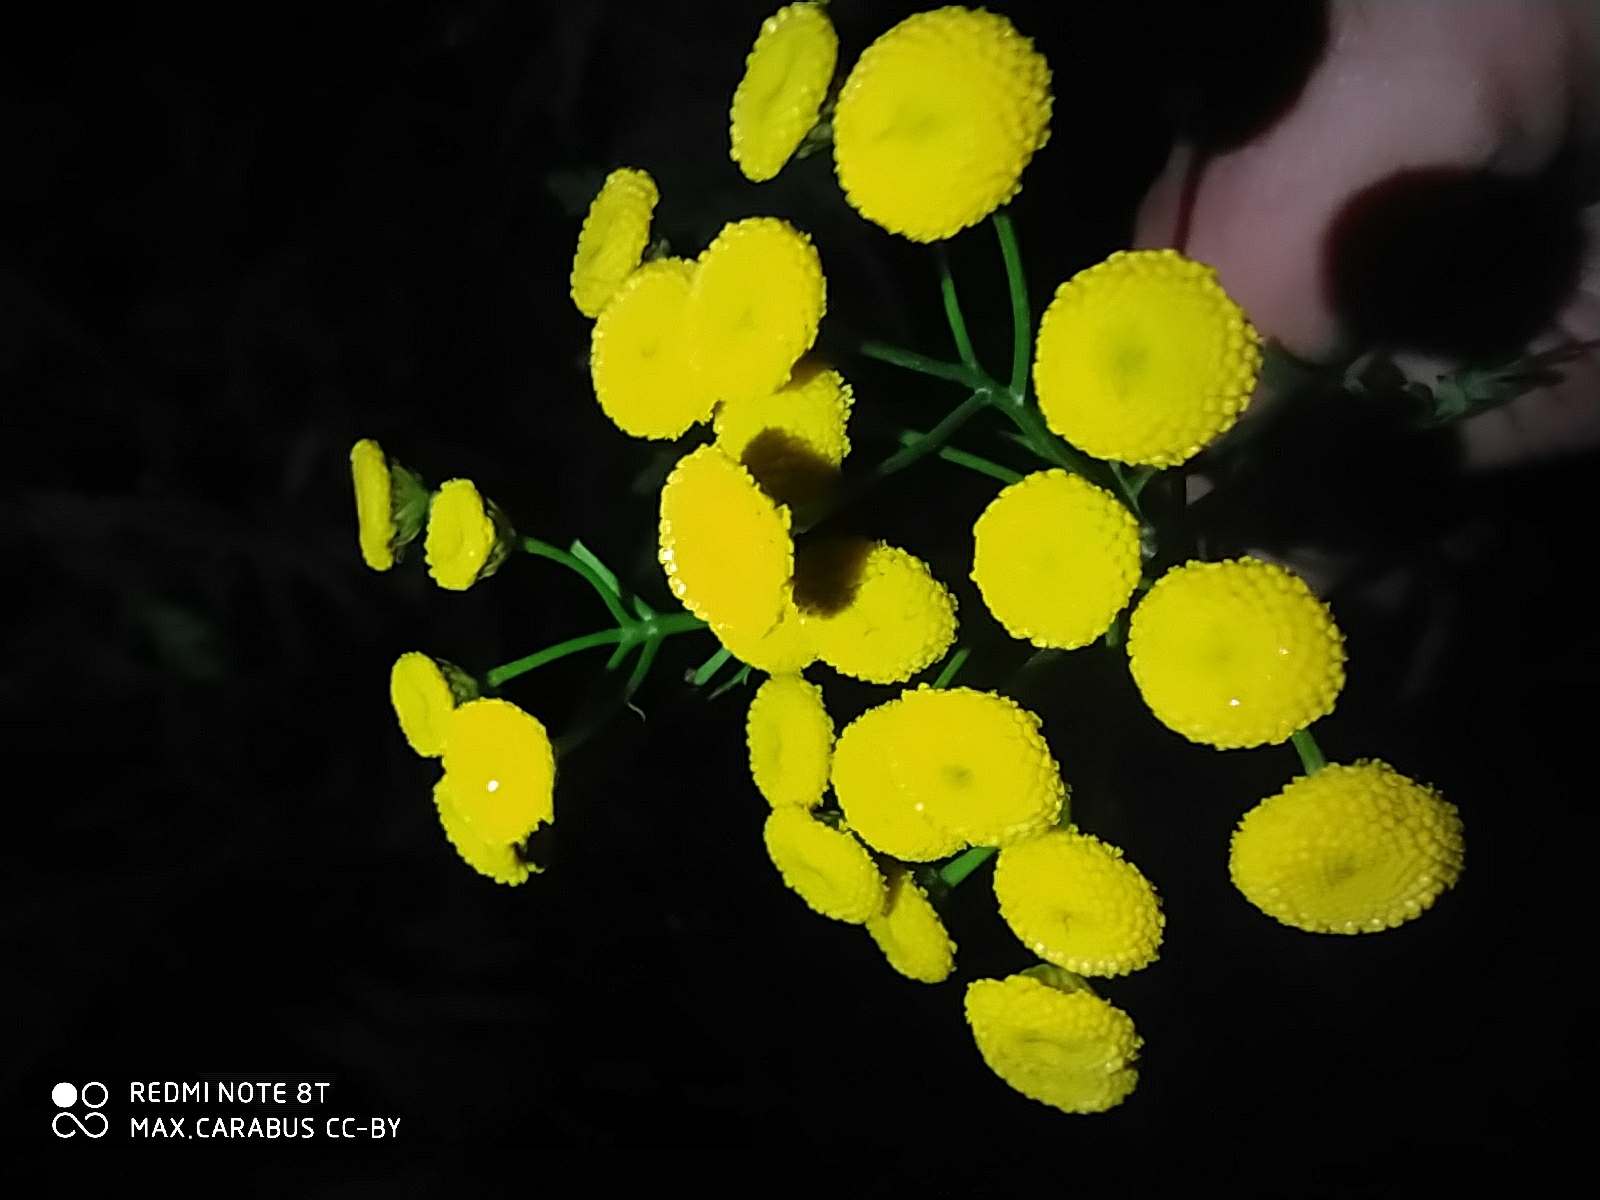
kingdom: Plantae
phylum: Tracheophyta
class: Magnoliopsida
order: Asterales
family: Asteraceae
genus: Tanacetum
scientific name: Tanacetum vulgare
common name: Common tansy
